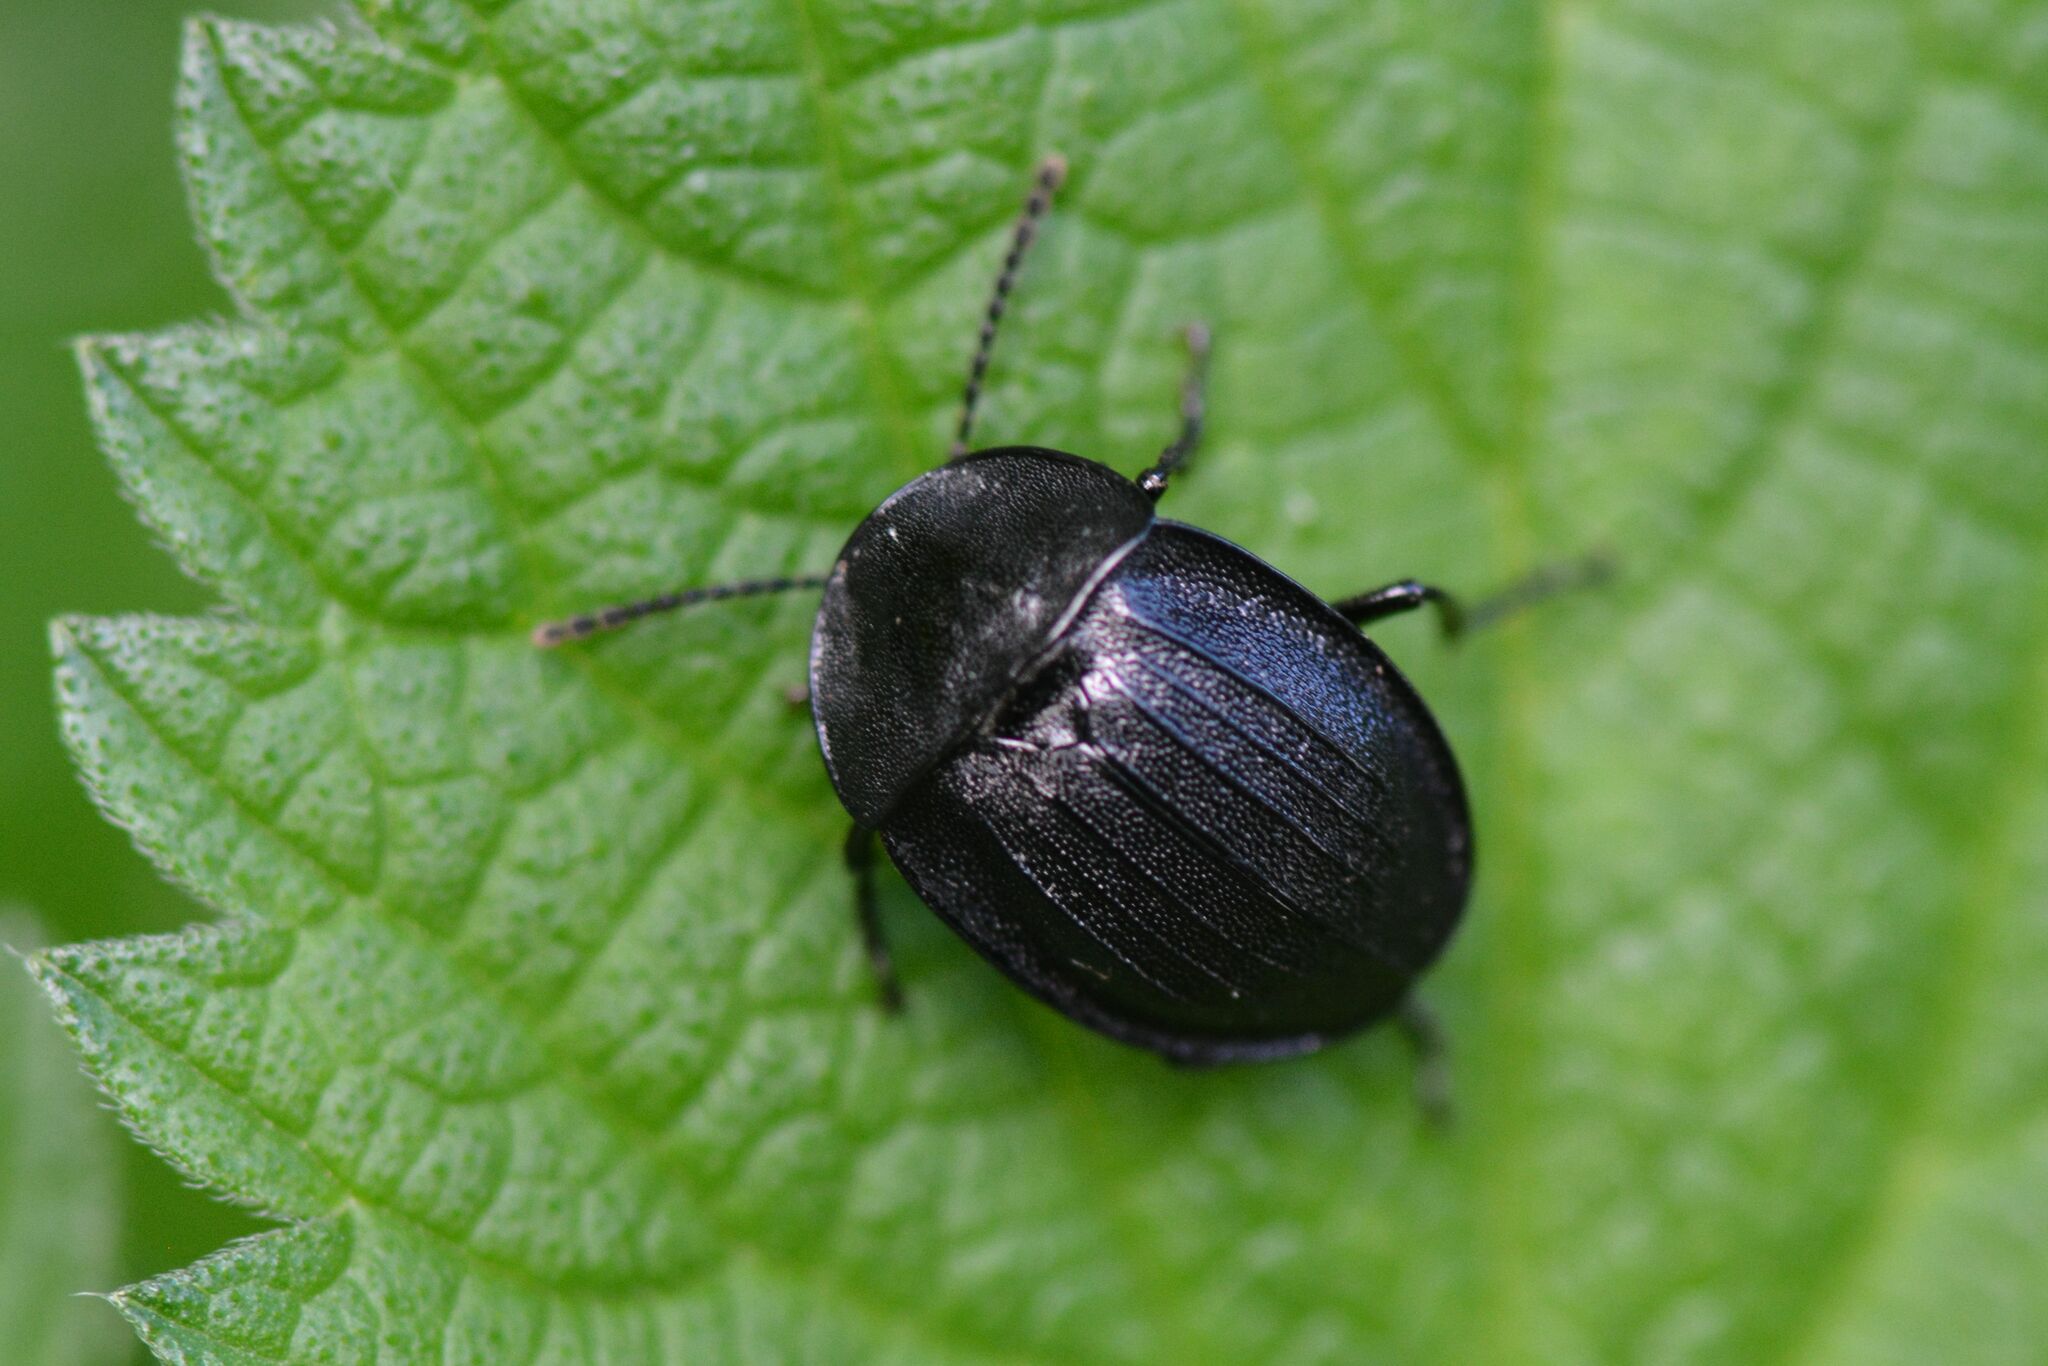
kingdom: Animalia
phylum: Arthropoda
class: Insecta
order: Coleoptera
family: Staphylinidae
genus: Silpha
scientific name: Silpha atrata
